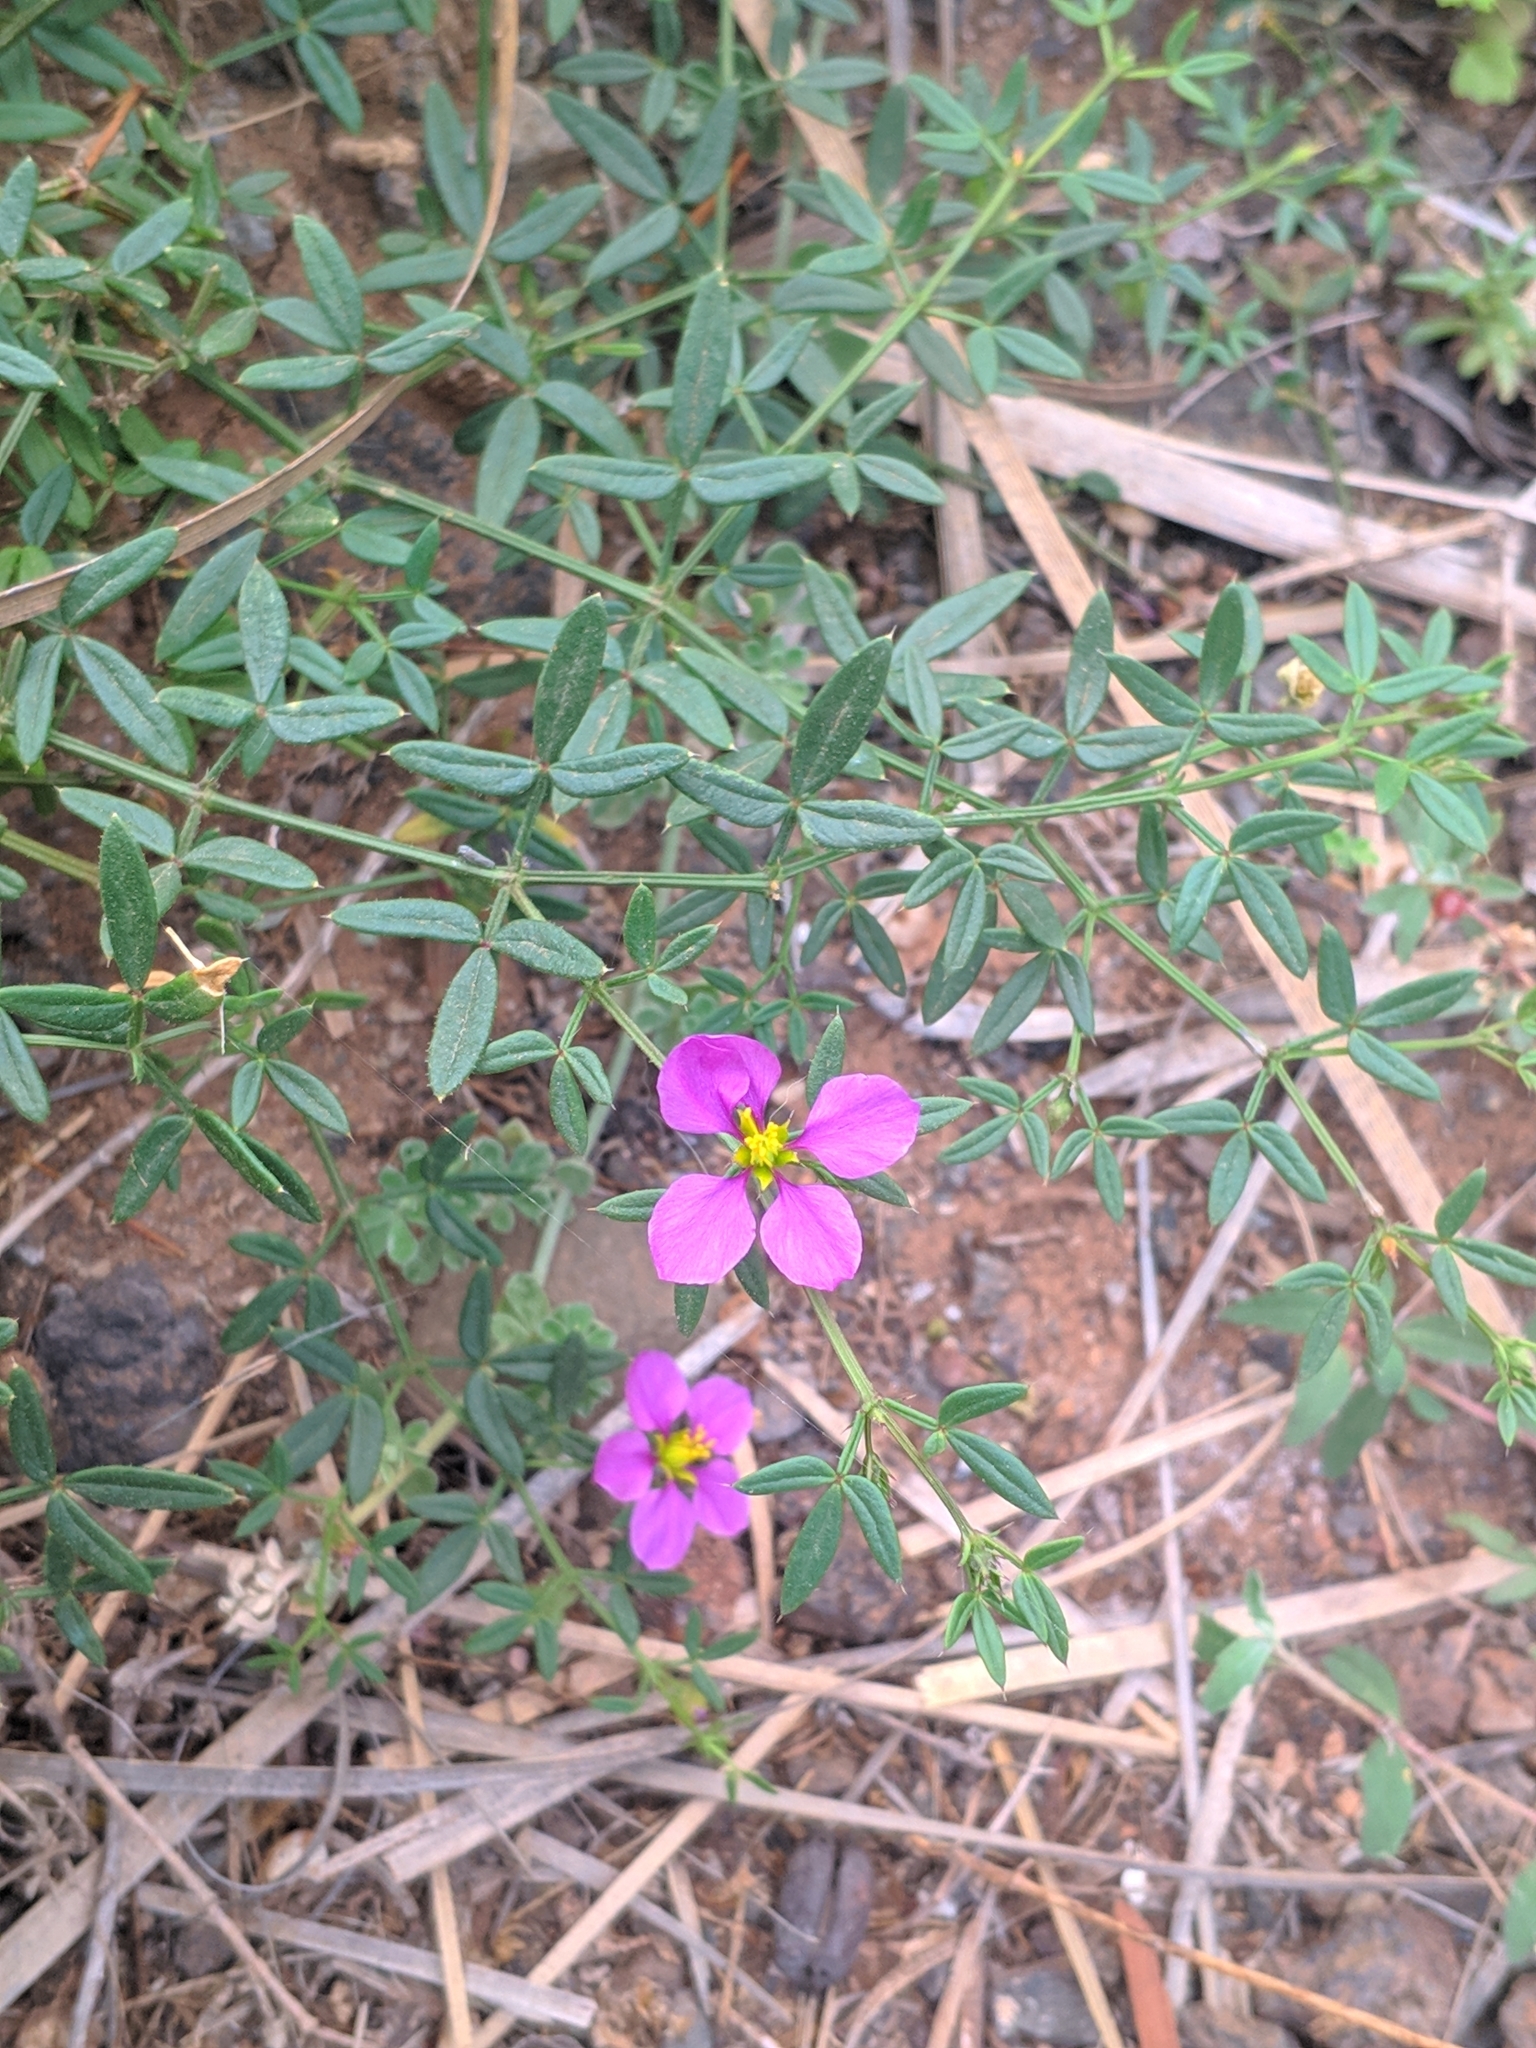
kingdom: Plantae
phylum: Tracheophyta
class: Magnoliopsida
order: Zygophyllales
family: Zygophyllaceae
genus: Fagonia
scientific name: Fagonia cretica
